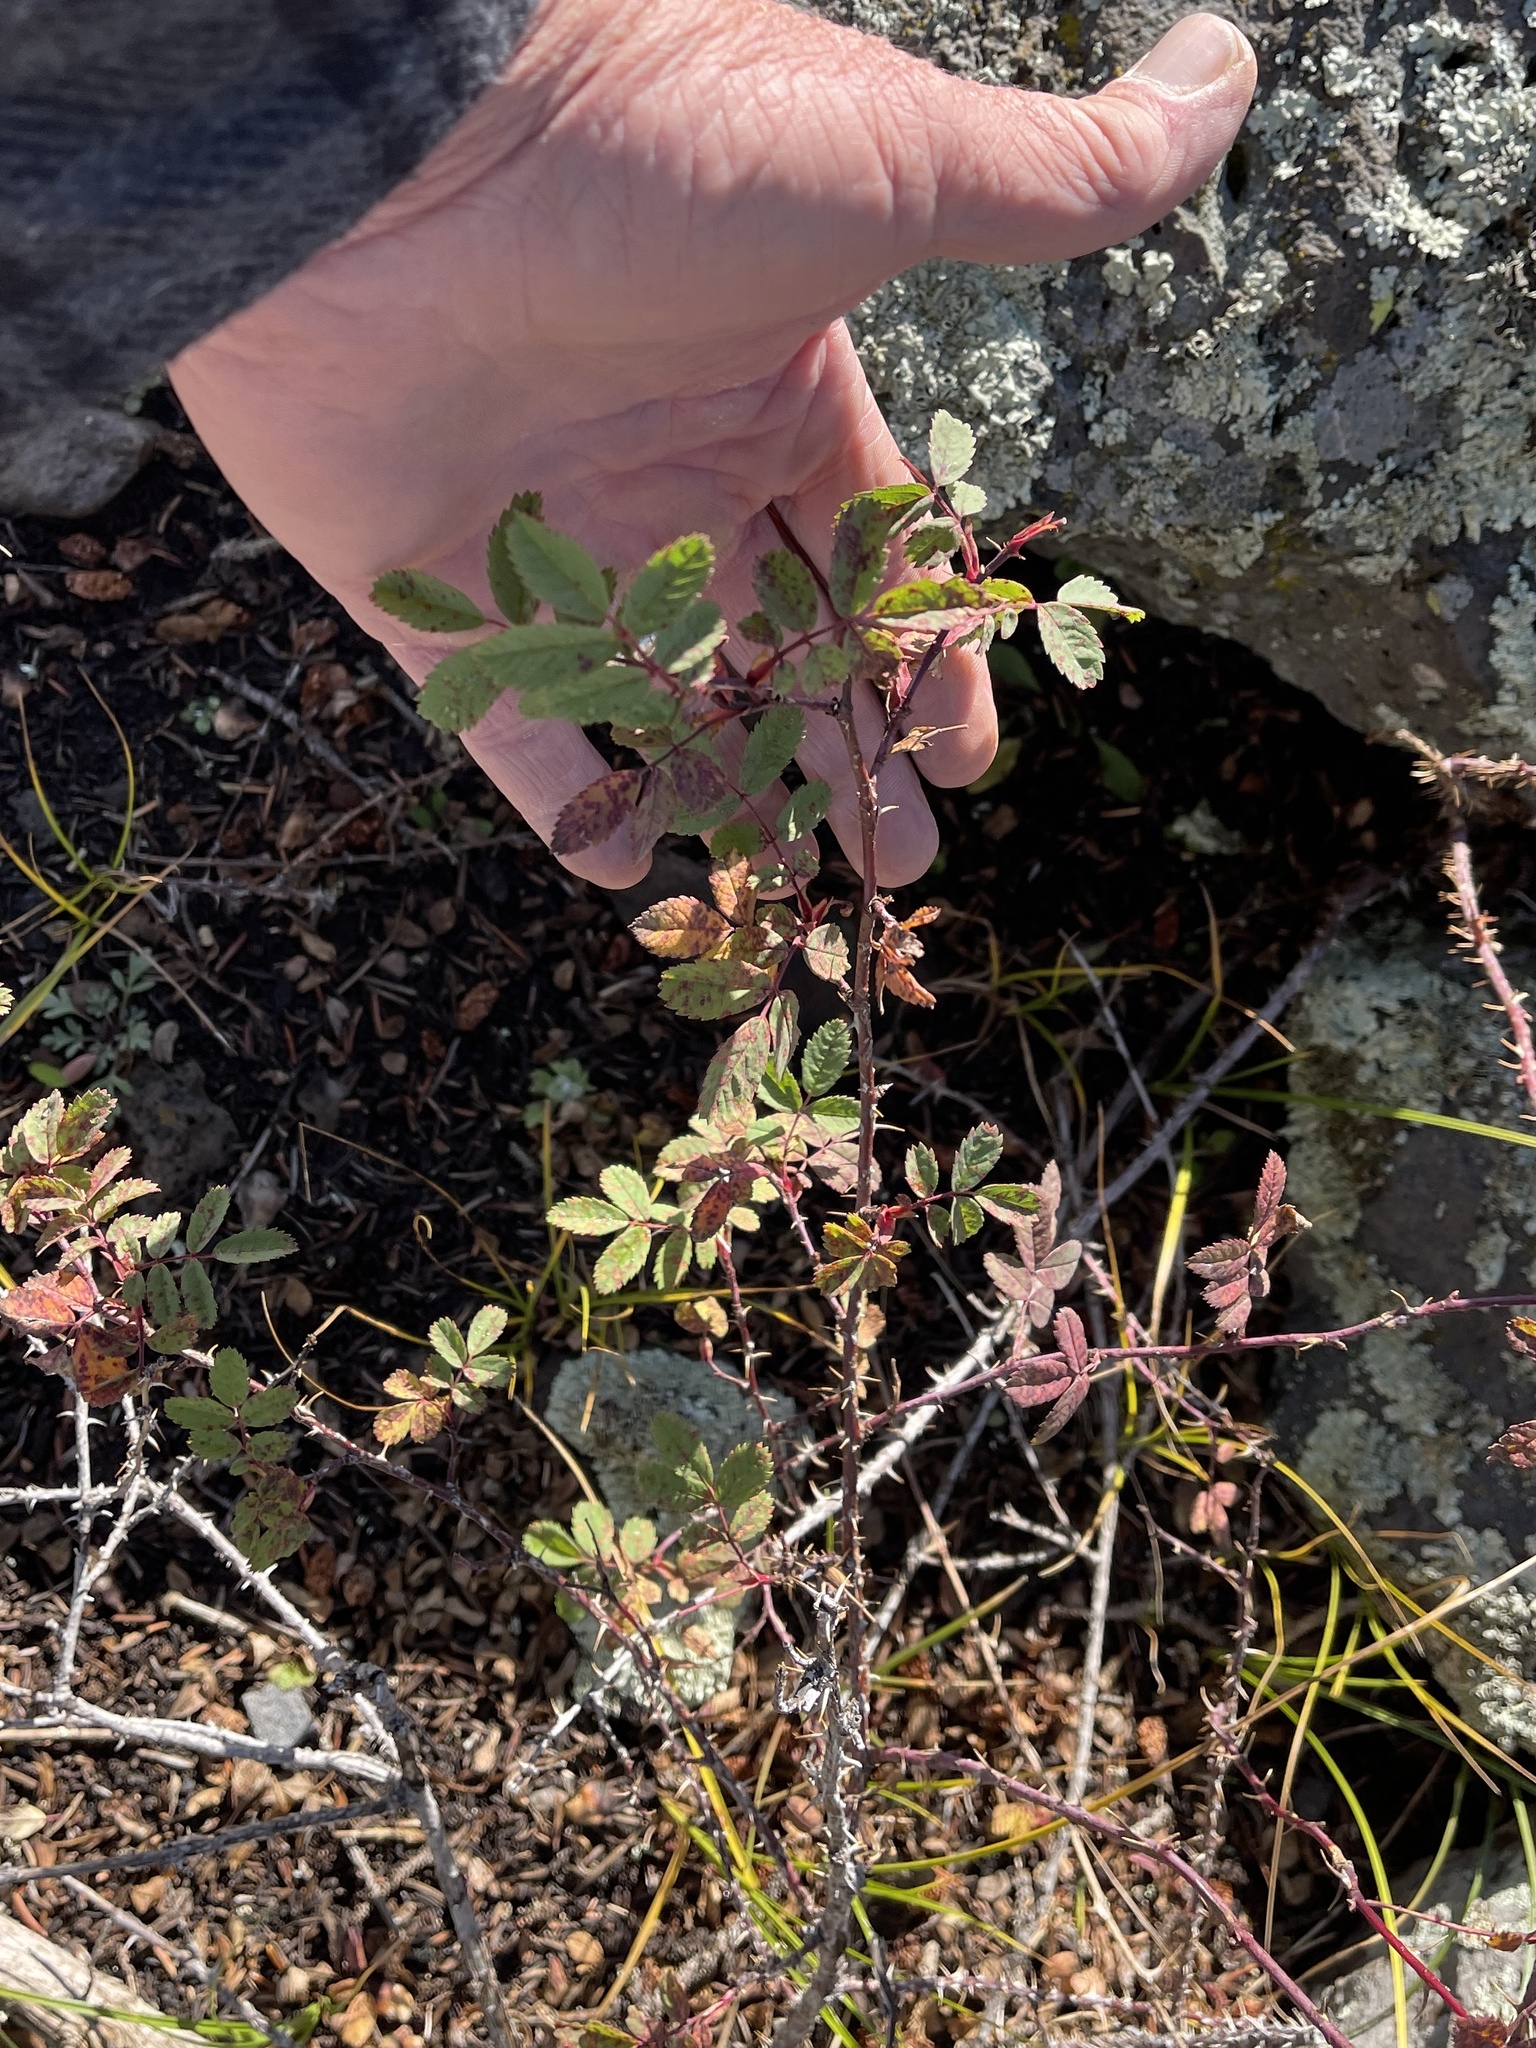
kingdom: Plantae
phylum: Tracheophyta
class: Magnoliopsida
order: Rosales
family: Rosaceae
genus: Rosa
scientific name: Rosa woodsii
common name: Woods's rose
